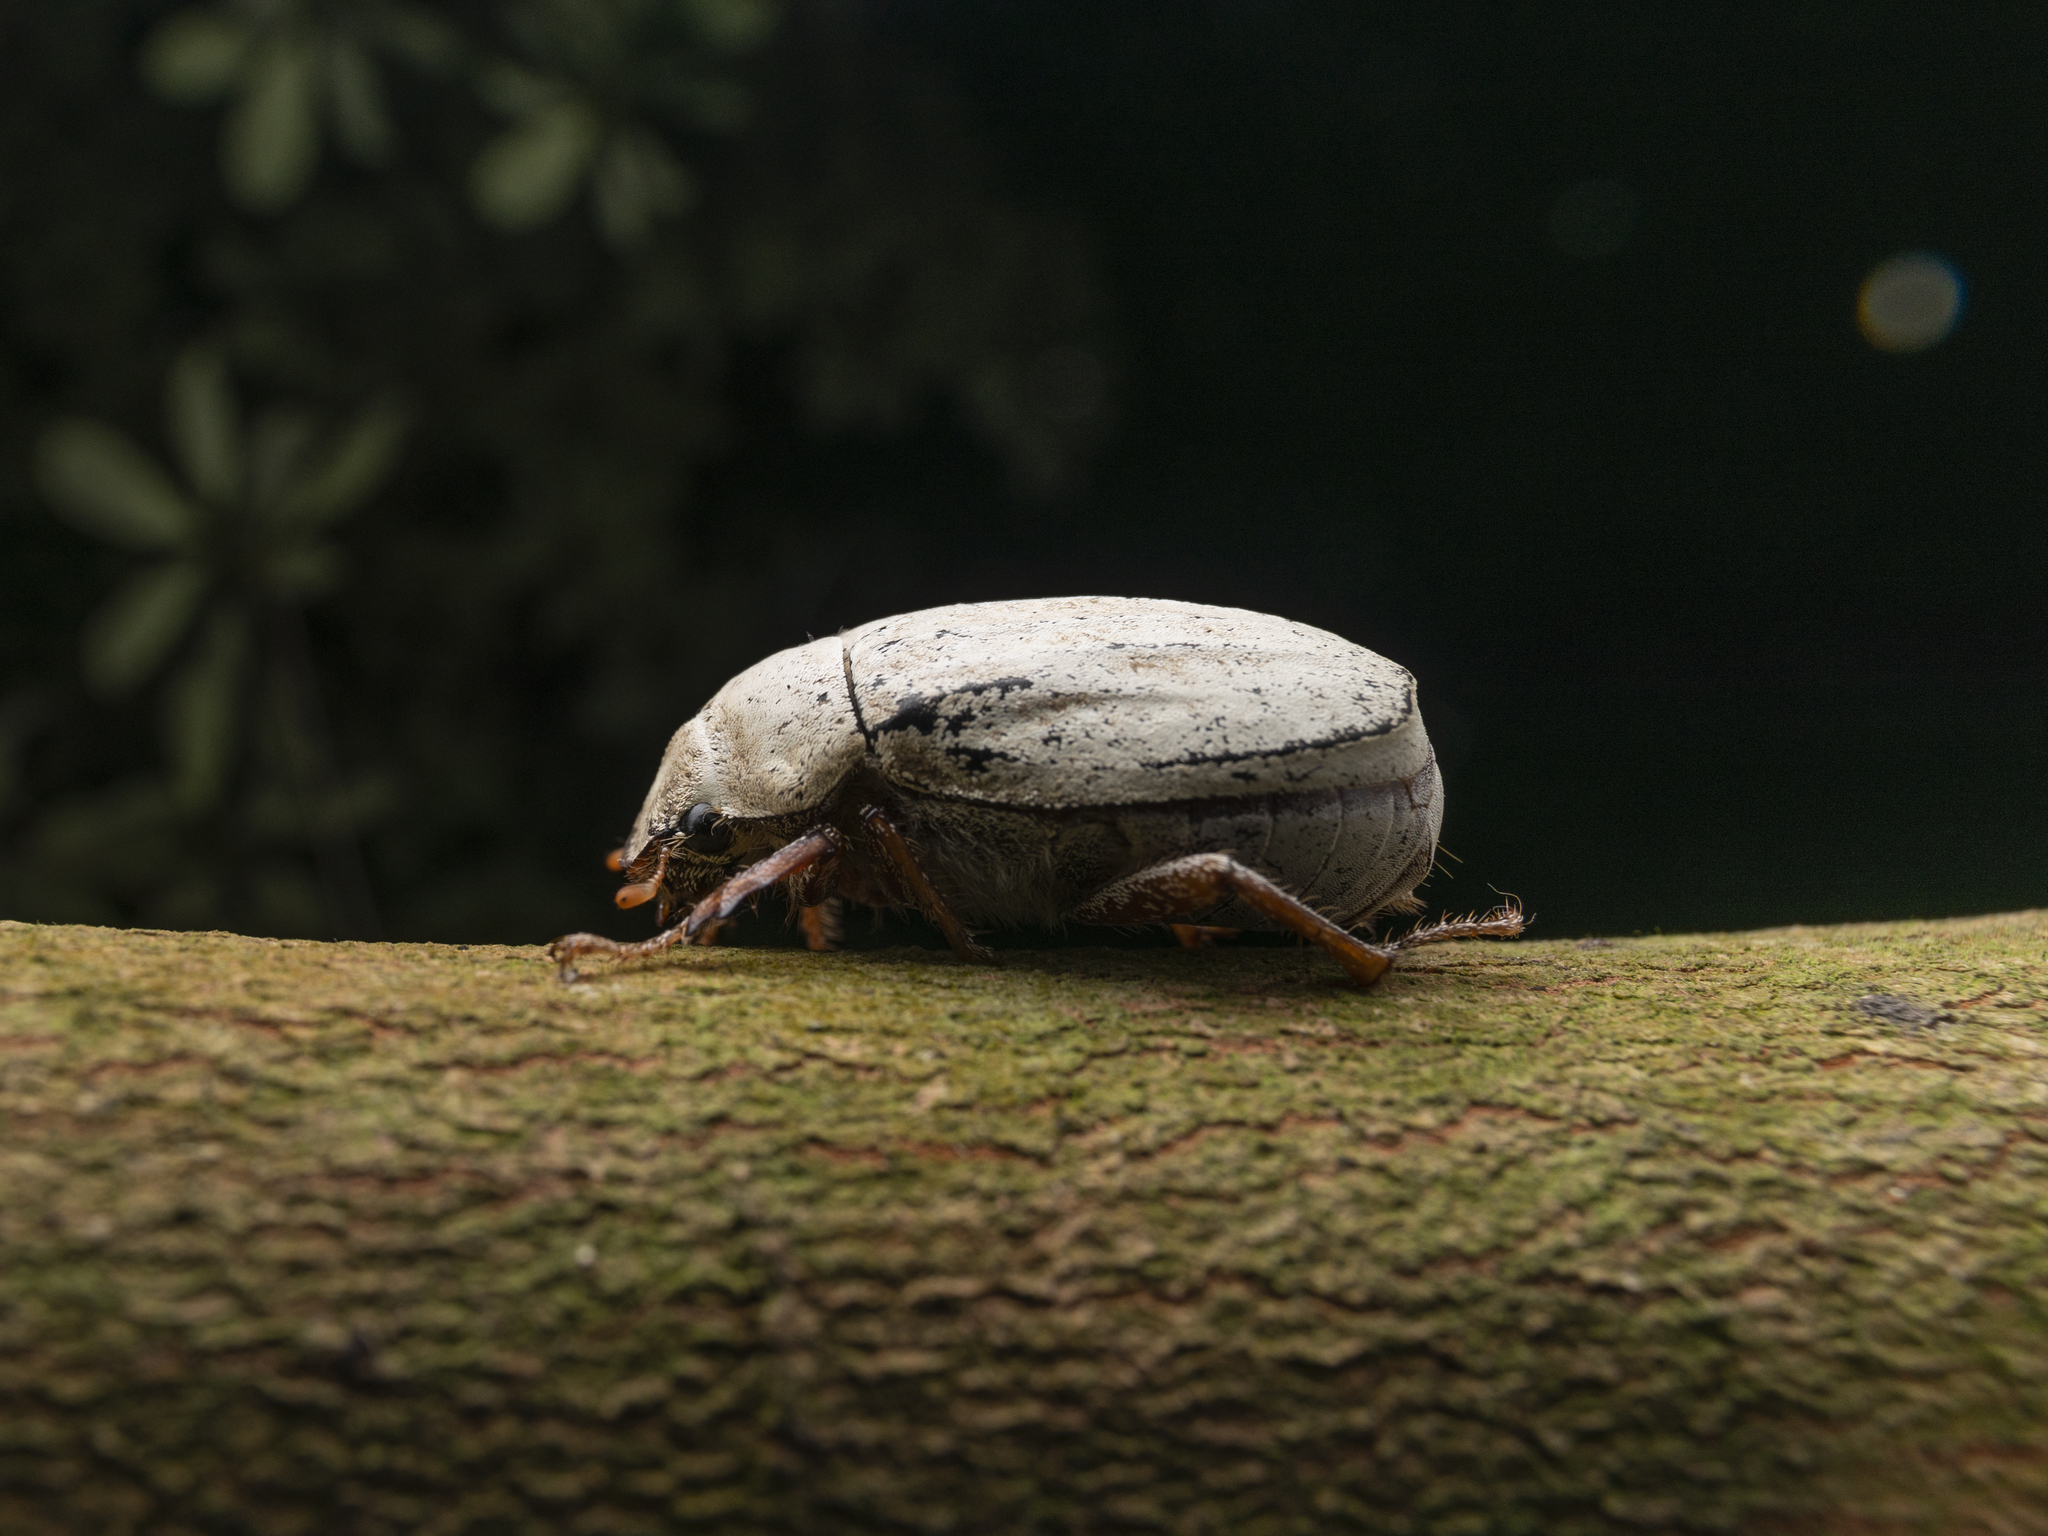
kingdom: Animalia
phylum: Arthropoda
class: Insecta
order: Coleoptera
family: Scarabaeidae
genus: Cyphochilus
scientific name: Cyphochilus apicalis
